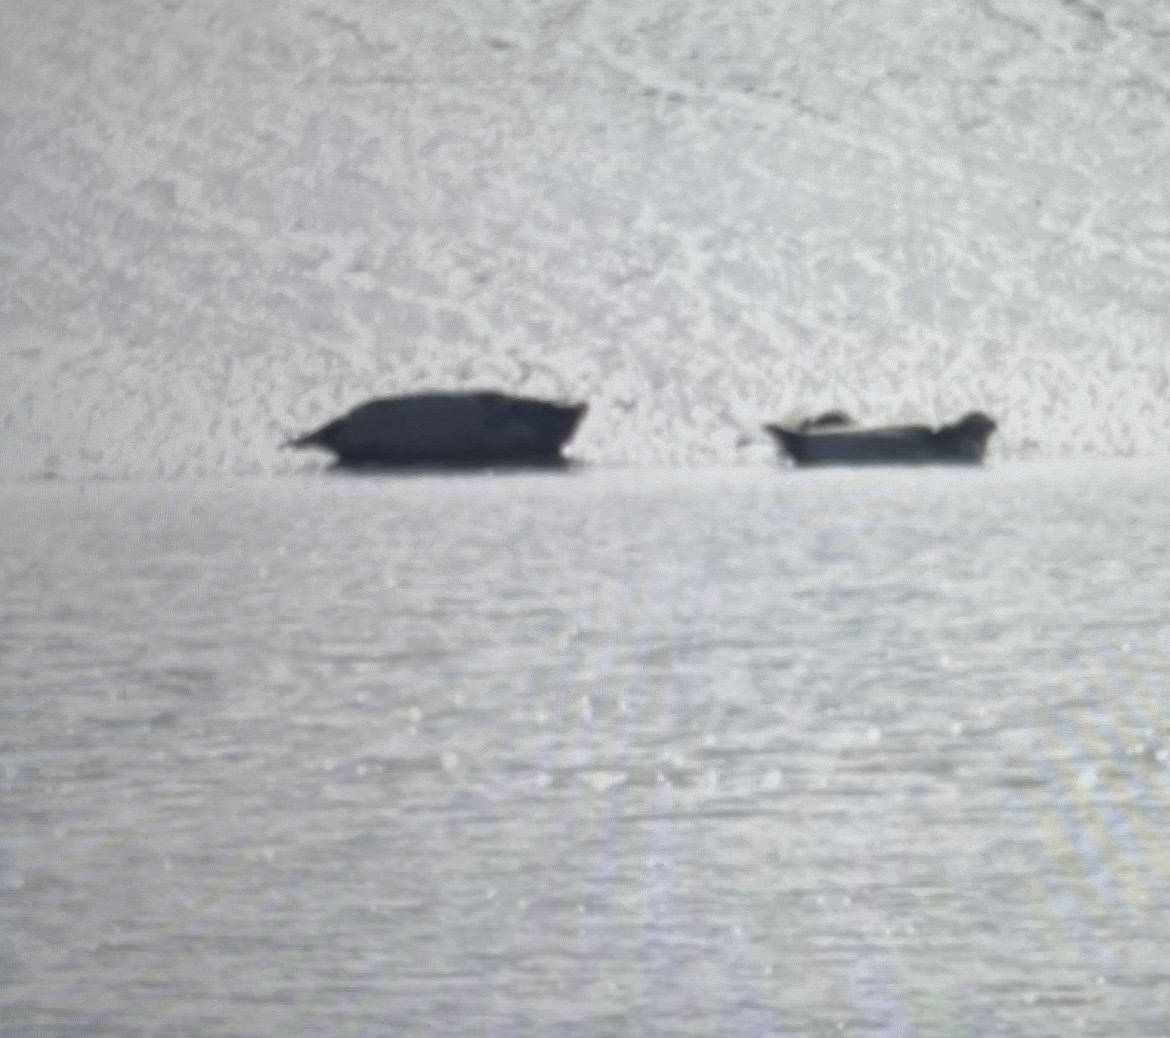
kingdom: Animalia
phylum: Chordata
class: Mammalia
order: Carnivora
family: Phocidae
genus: Phoca
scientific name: Phoca vitulina
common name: Harbor seal
